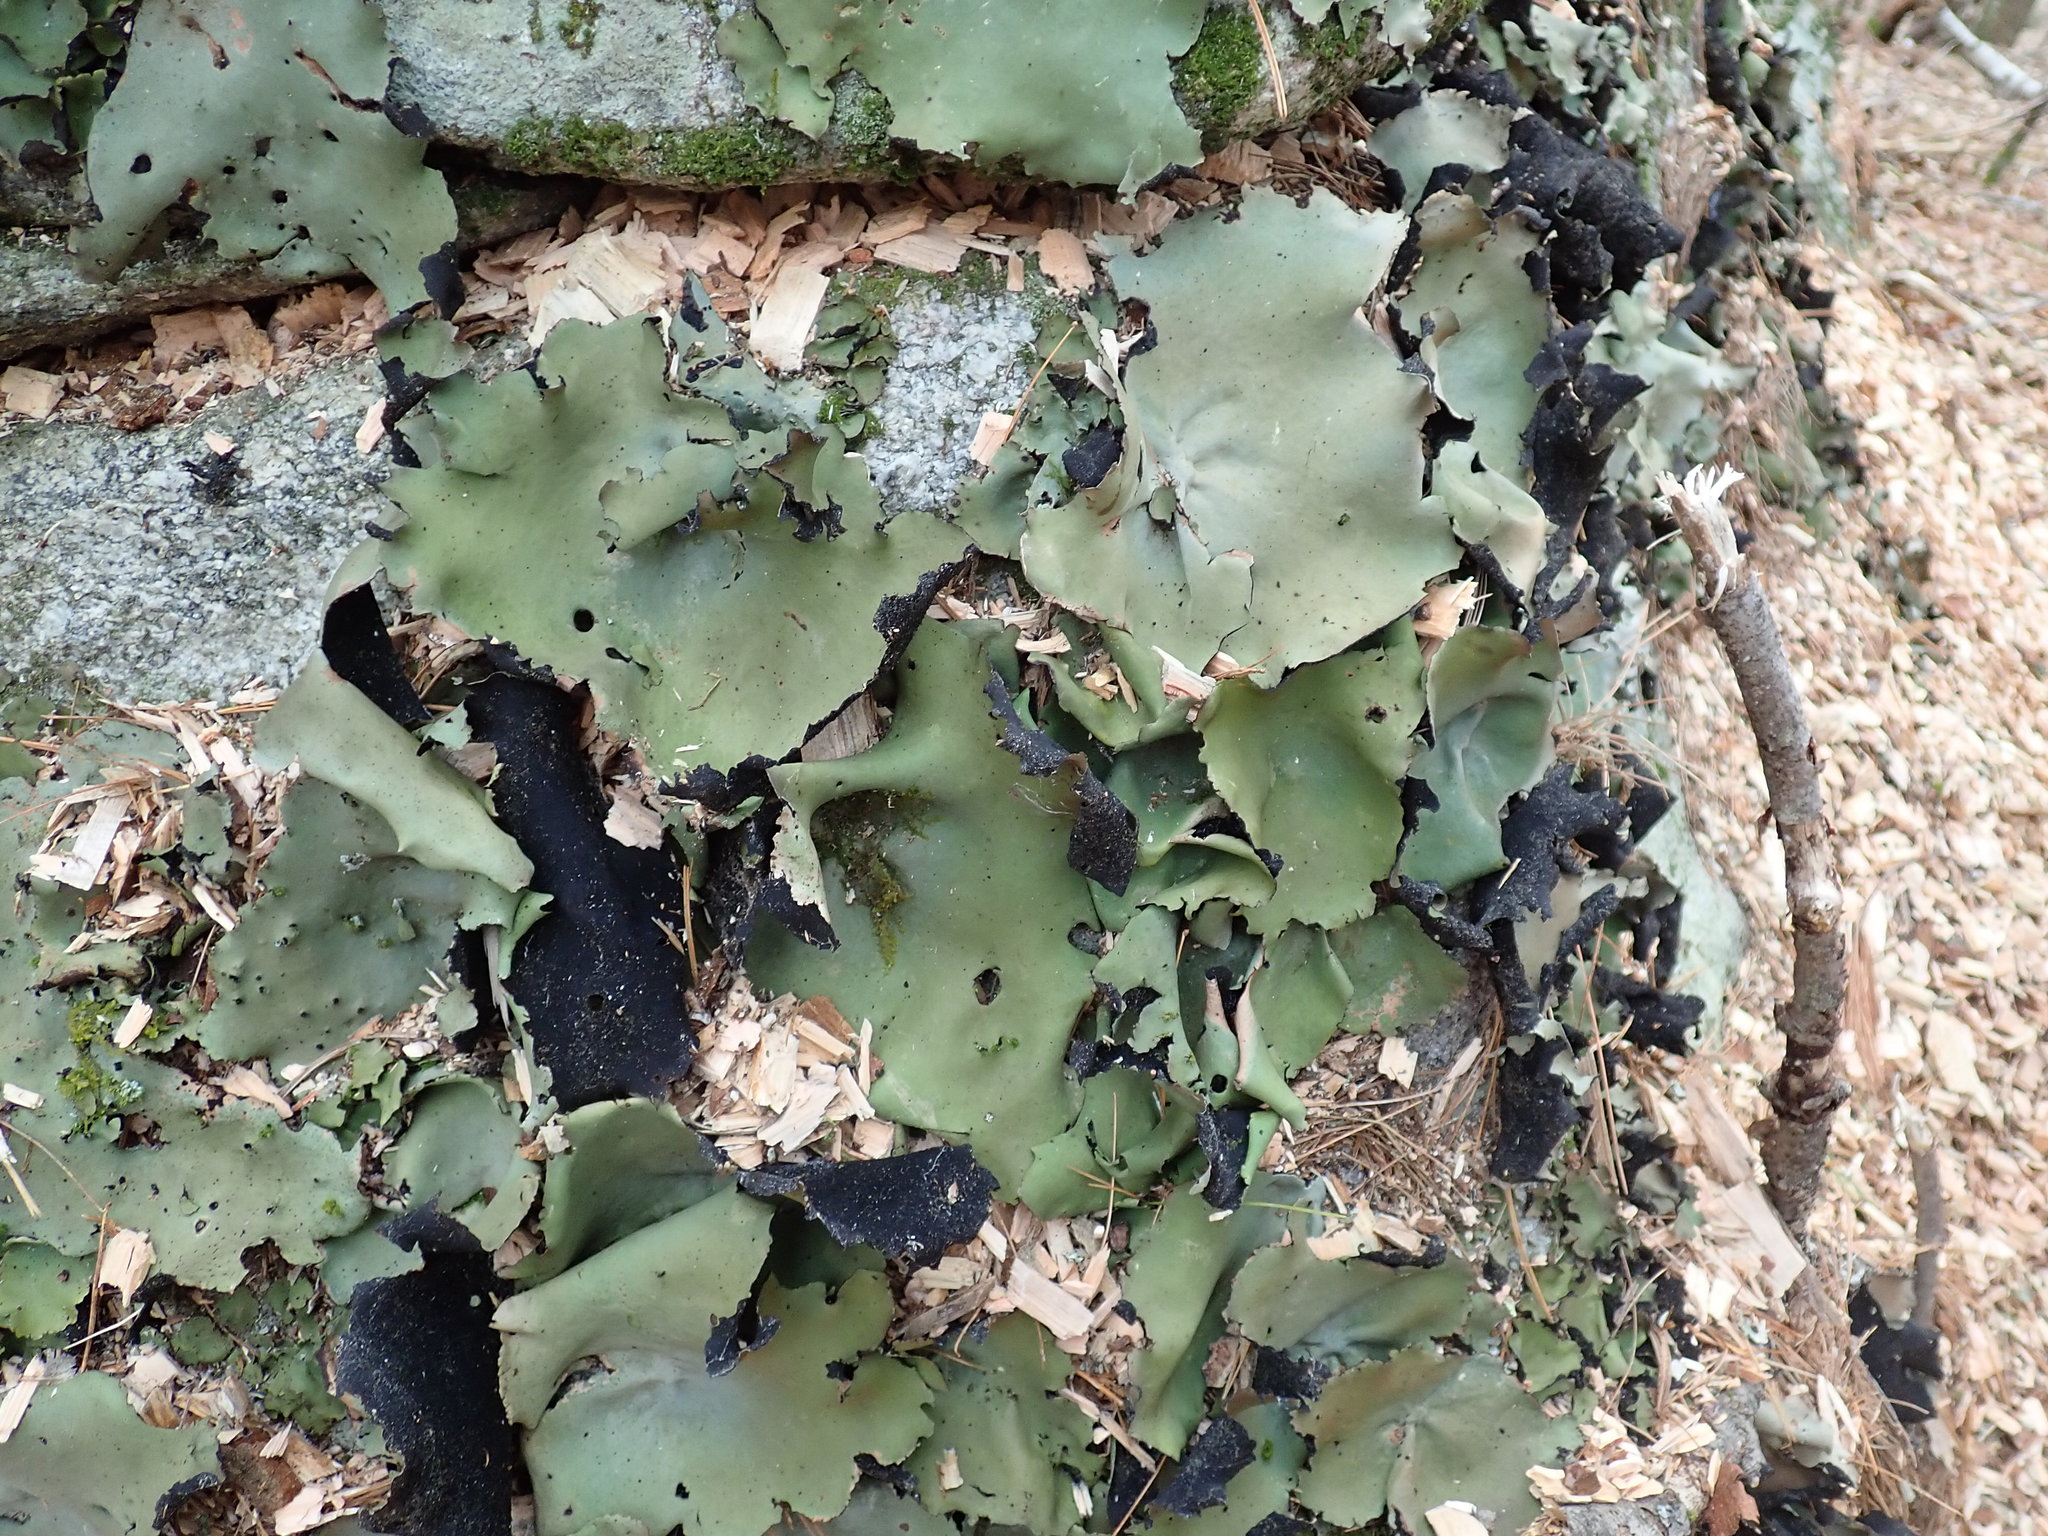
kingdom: Fungi
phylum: Ascomycota
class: Lecanoromycetes
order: Umbilicariales
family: Umbilicariaceae
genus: Umbilicaria
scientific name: Umbilicaria mammulata
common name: Smooth rock tripe
